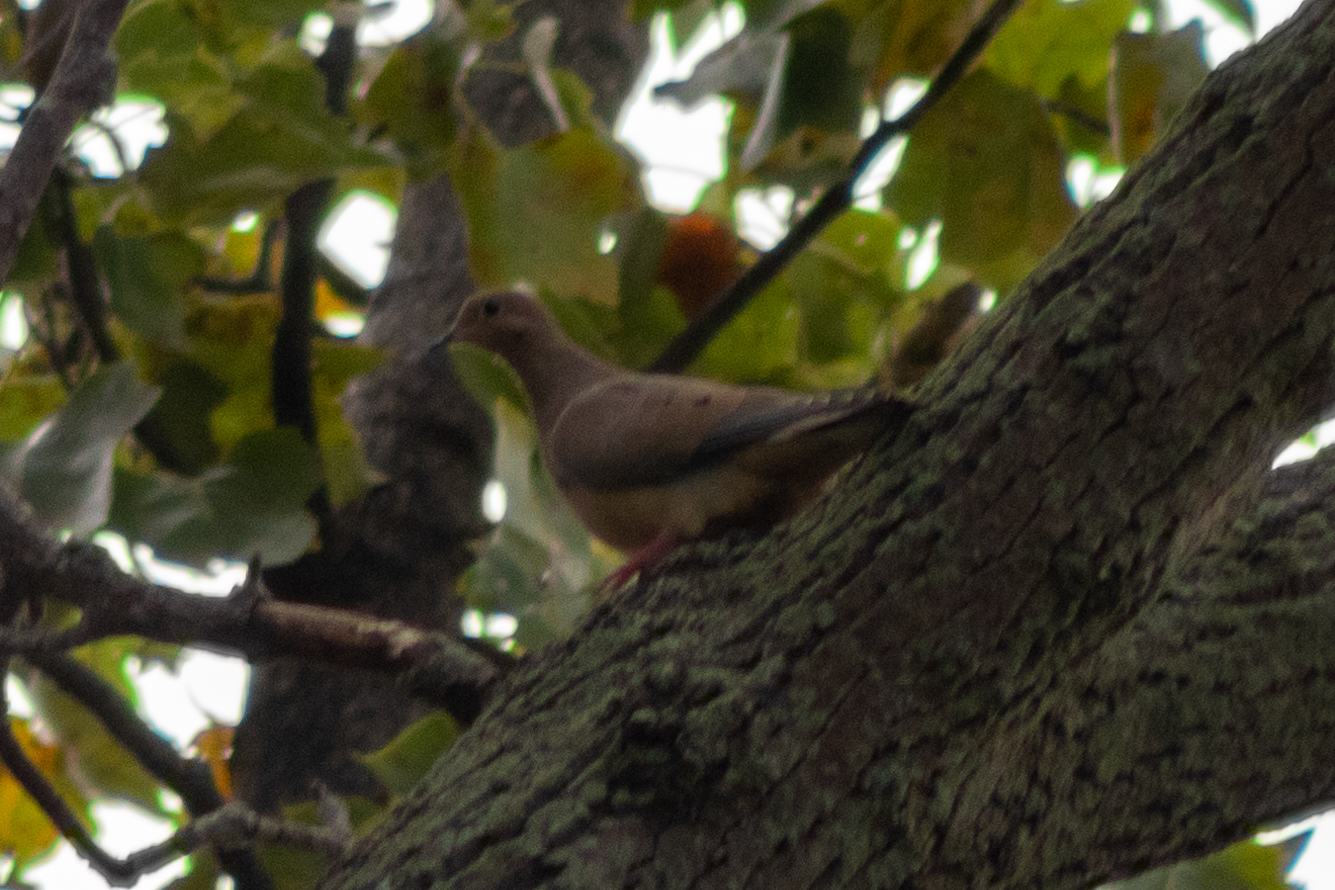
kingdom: Animalia
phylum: Chordata
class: Aves
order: Columbiformes
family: Columbidae
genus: Zenaida
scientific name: Zenaida macroura
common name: Mourning dove
